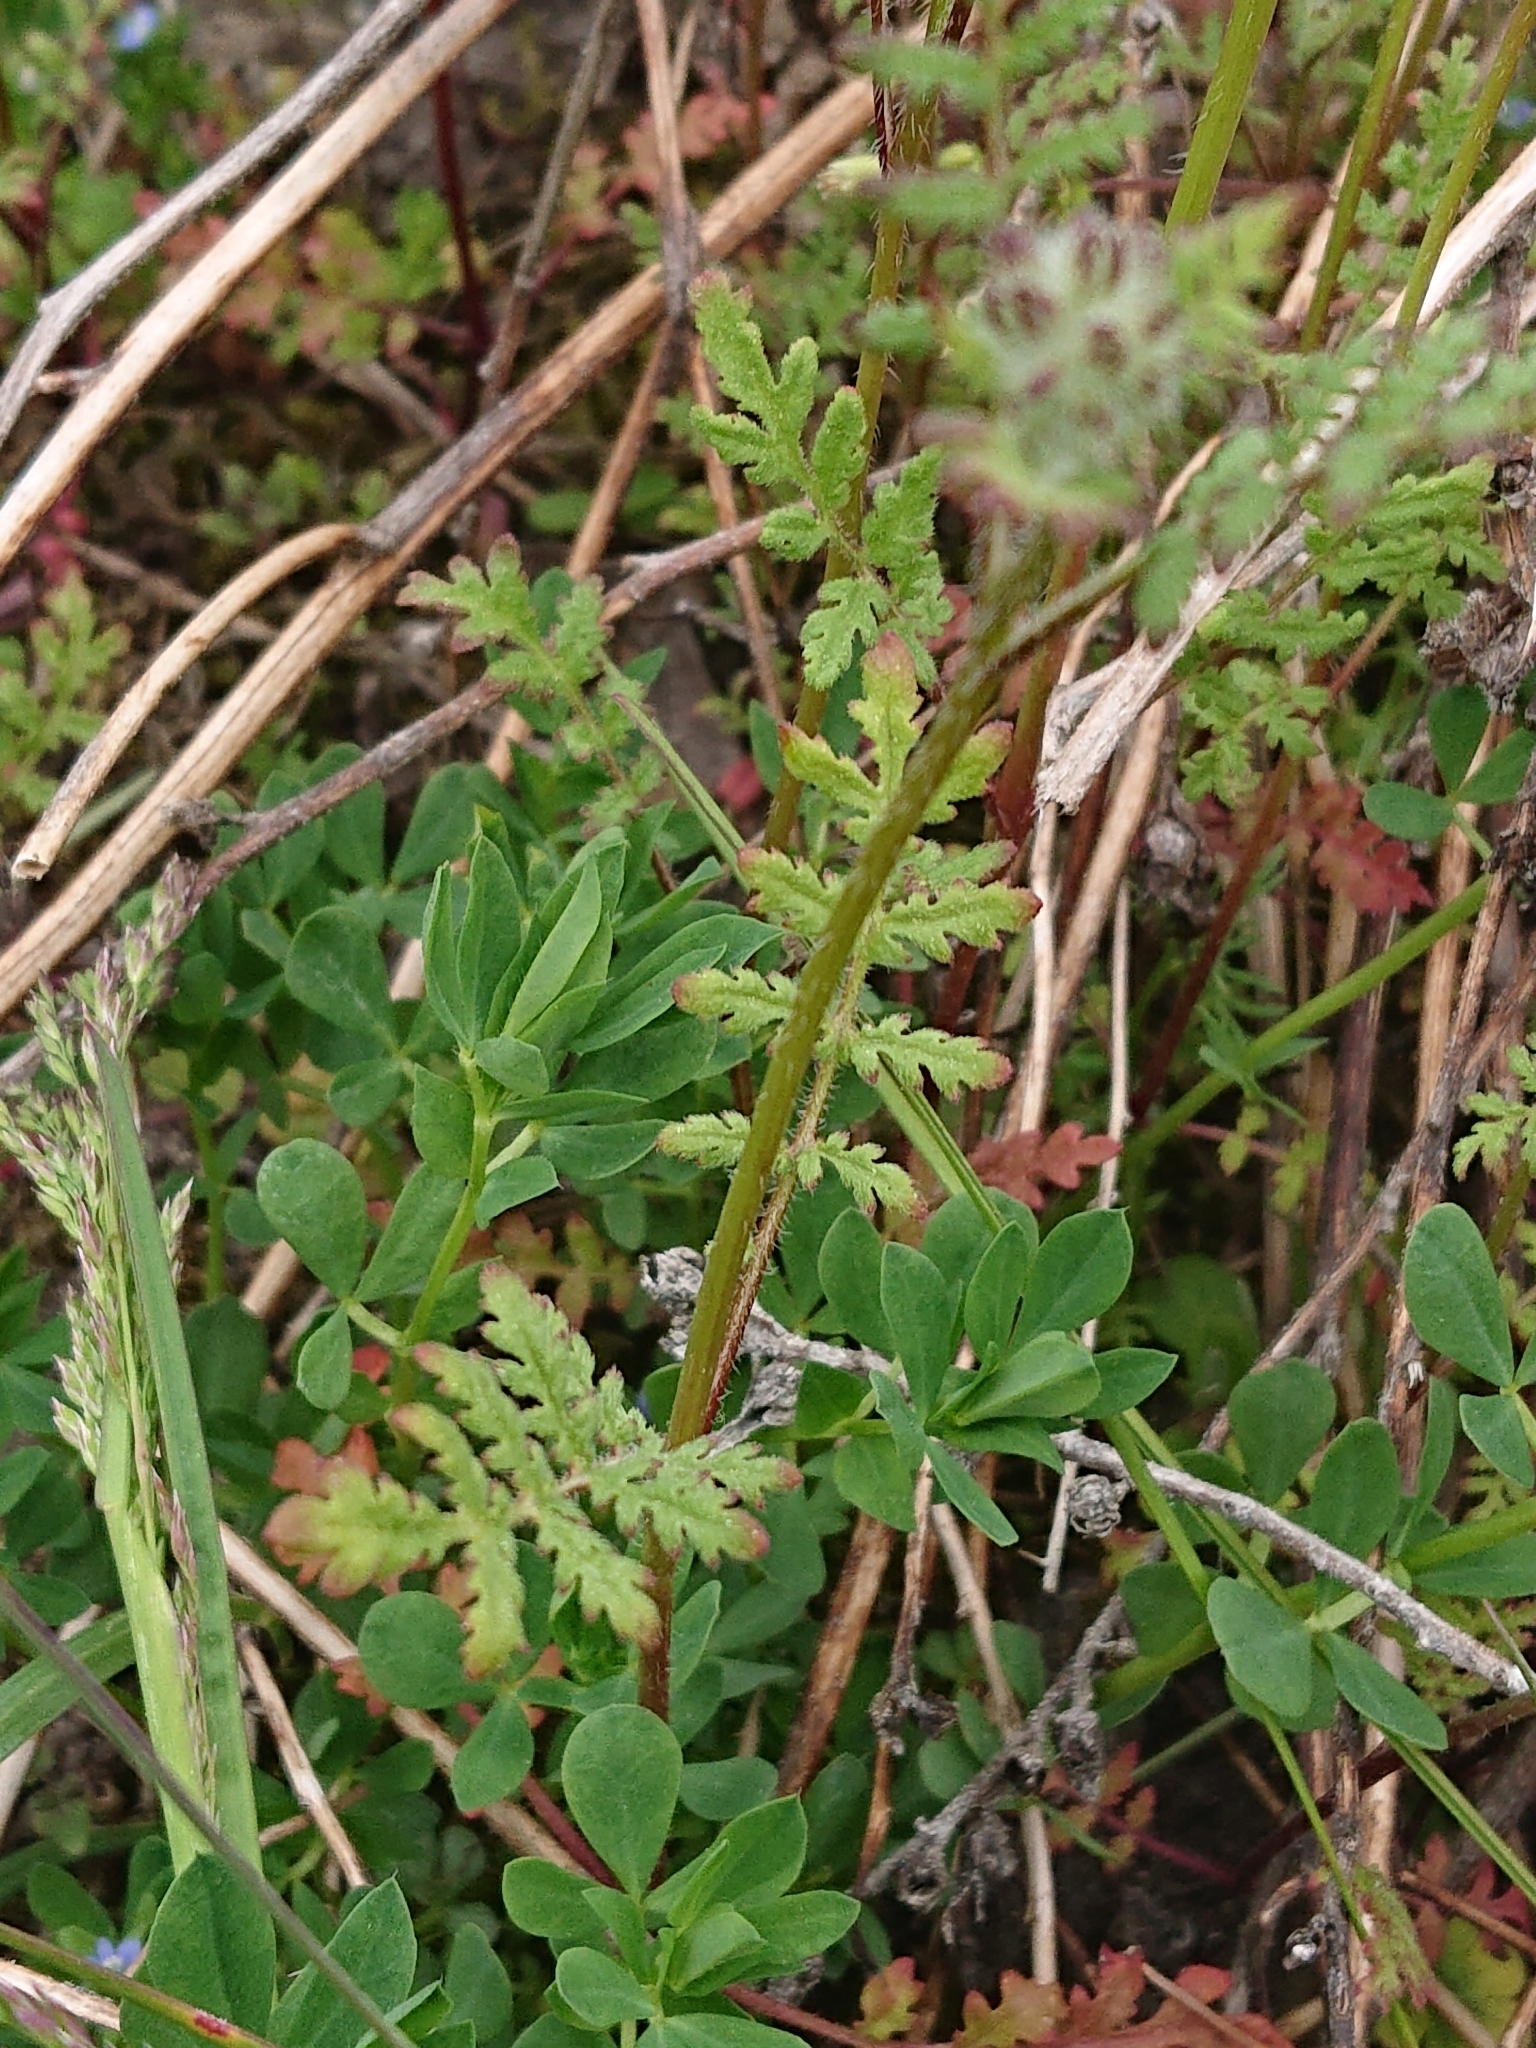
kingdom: Plantae
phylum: Tracheophyta
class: Magnoliopsida
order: Boraginales
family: Hydrophyllaceae
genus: Phacelia
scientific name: Phacelia tanacetifolia
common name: Phacelia
